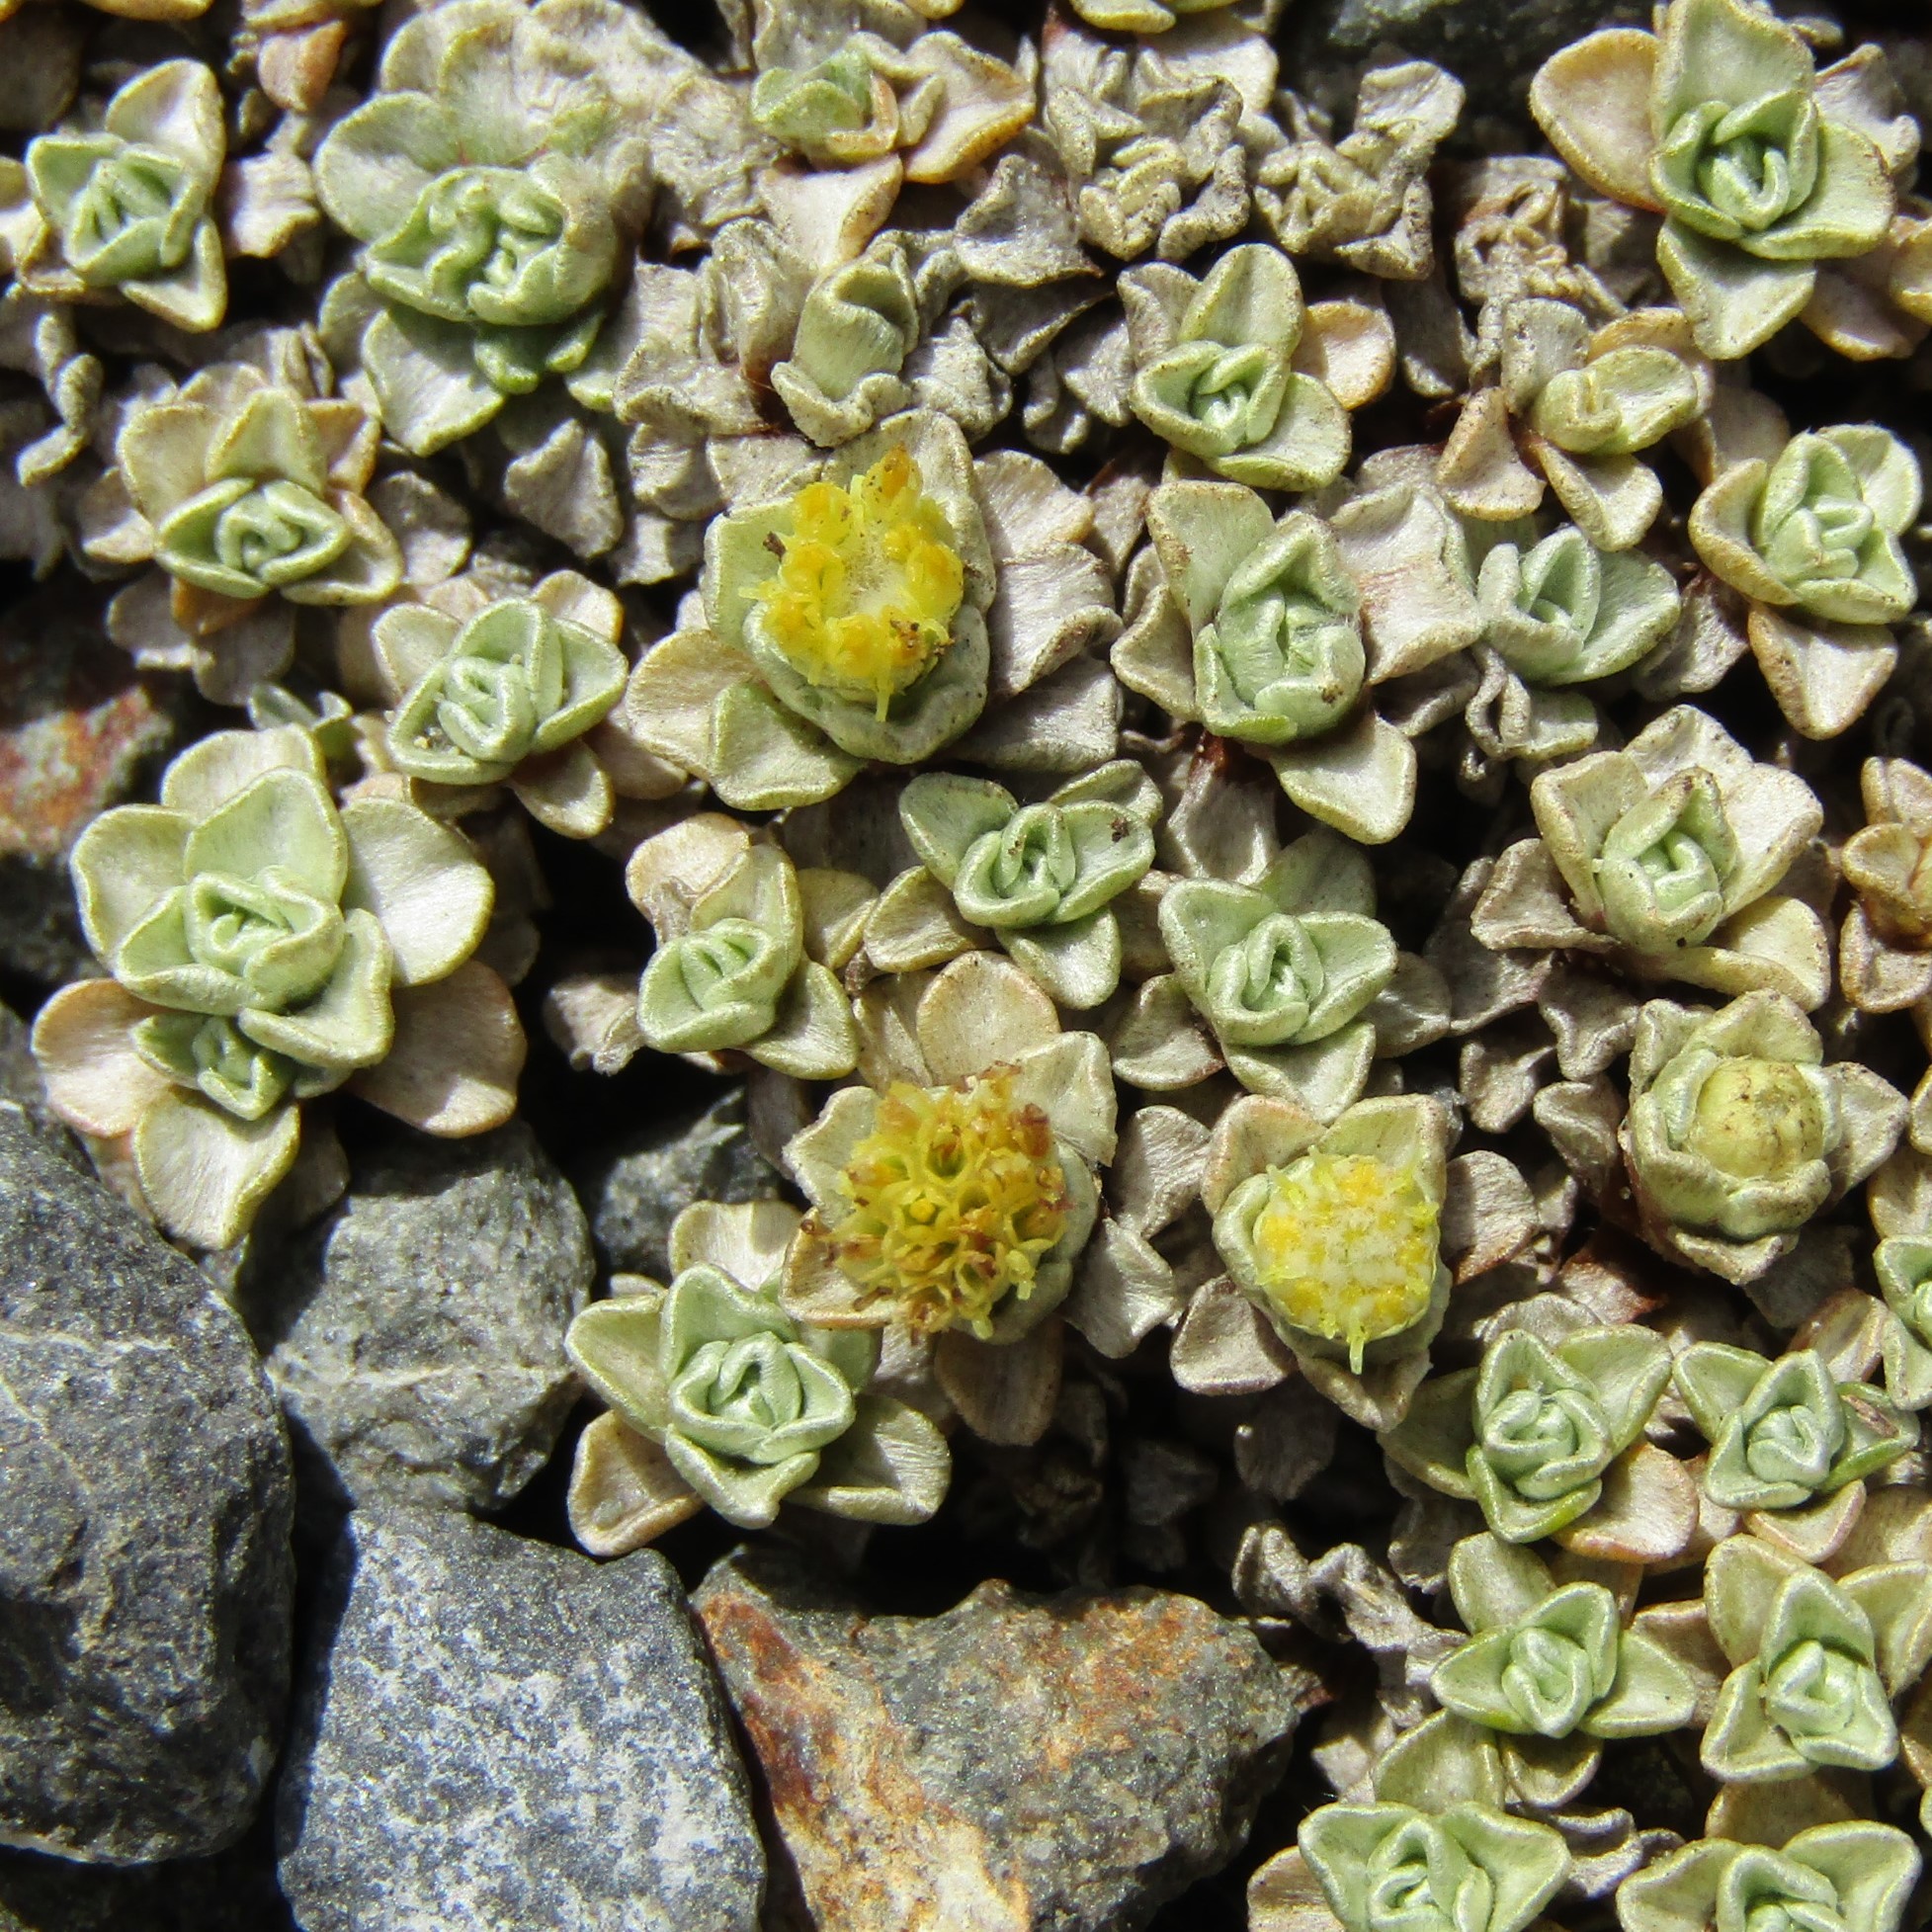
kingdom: Plantae
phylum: Tracheophyta
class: Magnoliopsida
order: Asterales
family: Asteraceae
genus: Raoulia
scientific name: Raoulia hookeri
